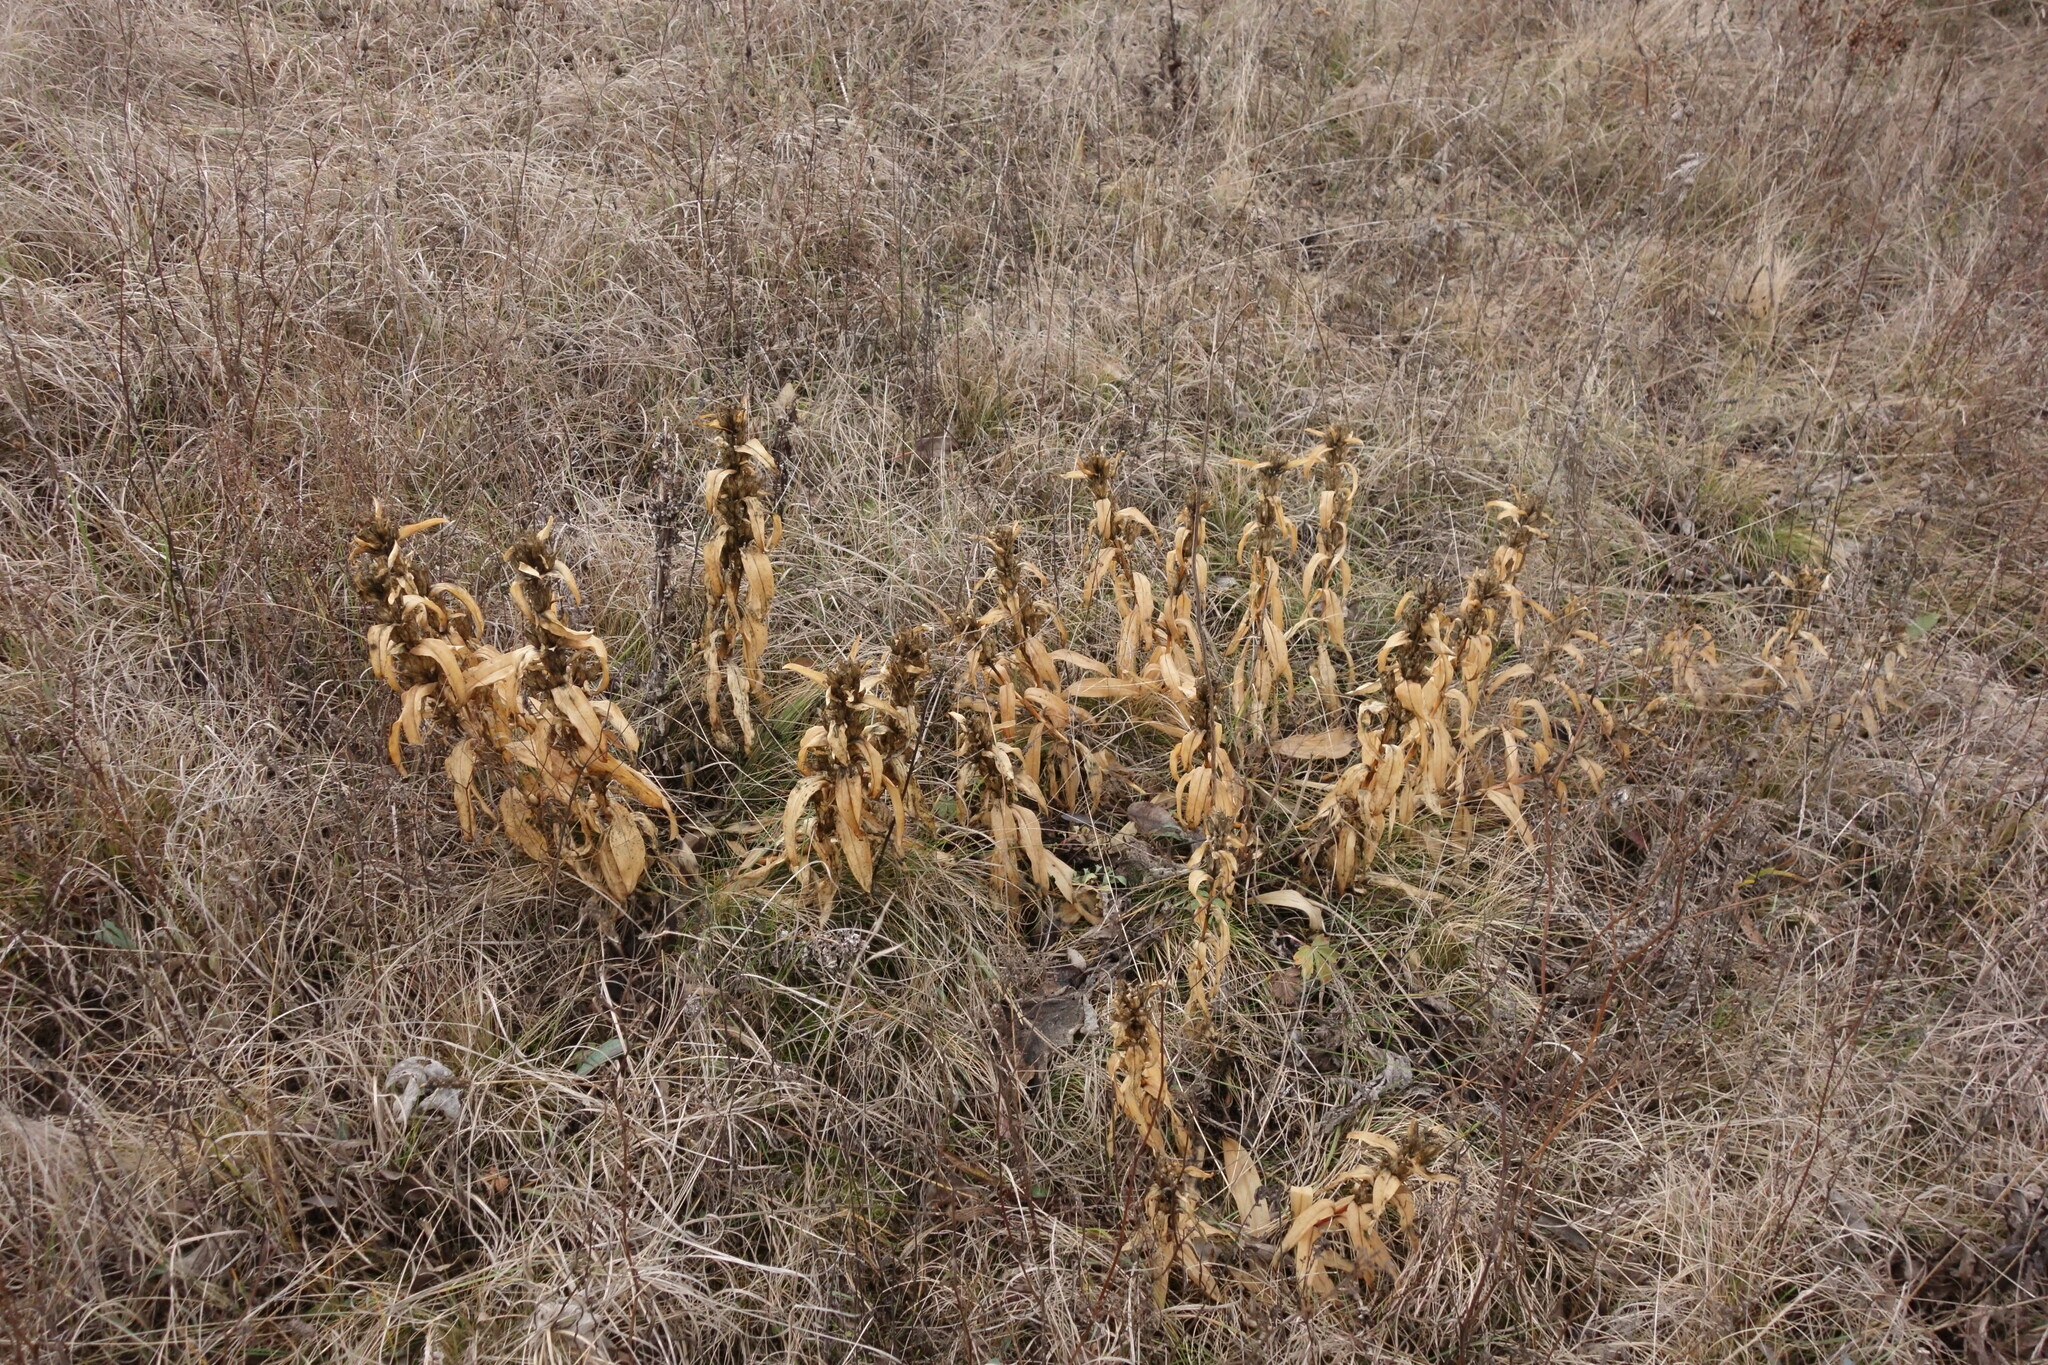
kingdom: Plantae
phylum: Tracheophyta
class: Magnoliopsida
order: Gentianales
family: Gentianaceae
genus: Gentiana
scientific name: Gentiana cruciata
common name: Cross gentian
